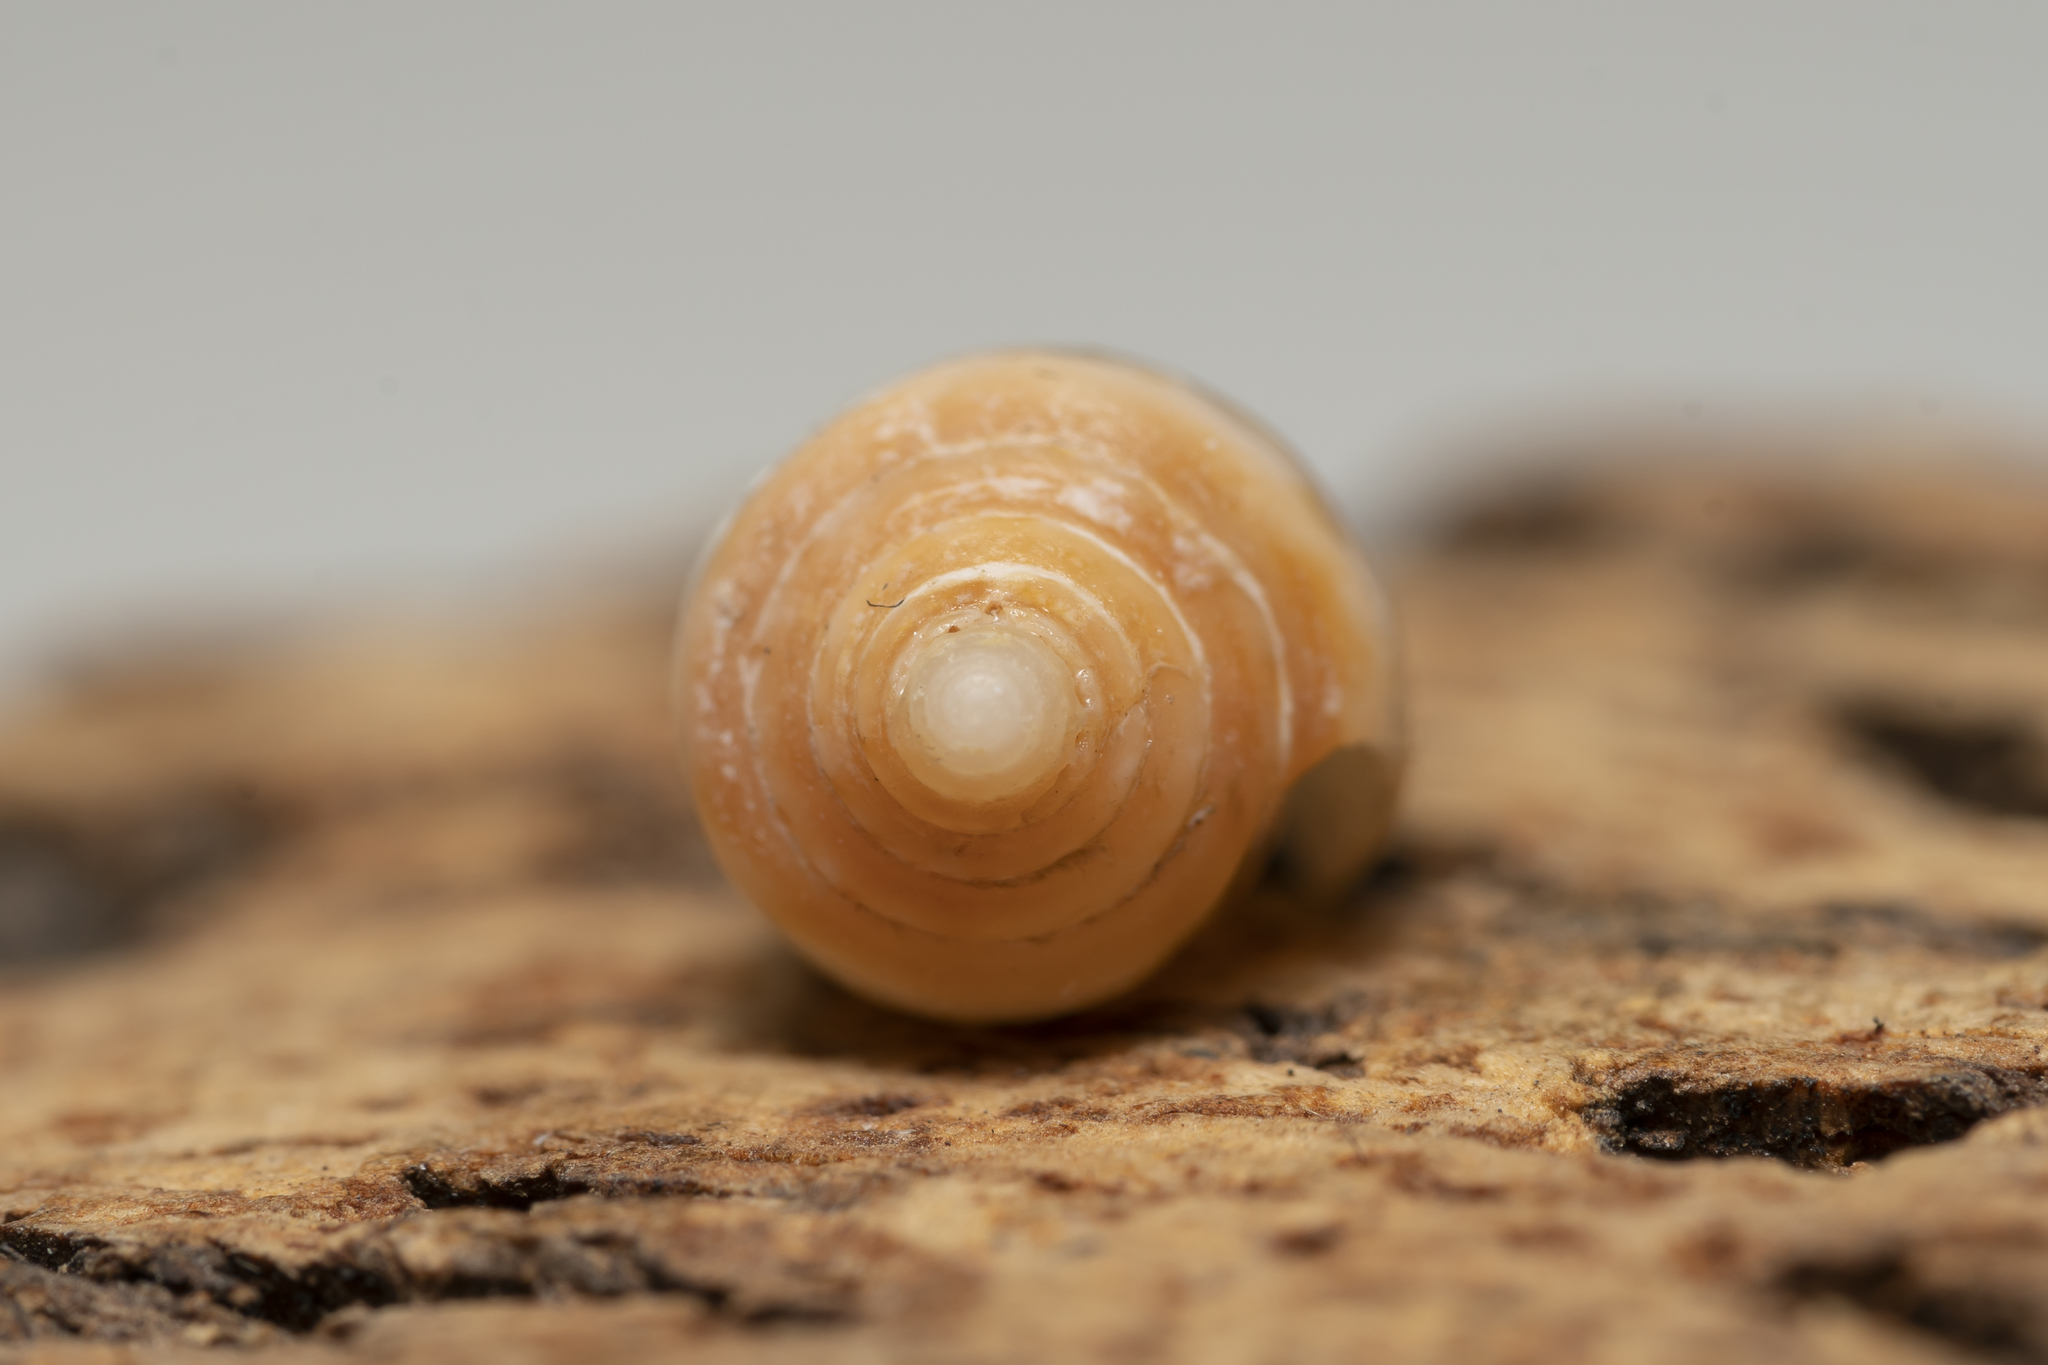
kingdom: Animalia
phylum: Mollusca
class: Gastropoda
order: Neogastropoda
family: Conidae
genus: Conus
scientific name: Conus ventricosus
